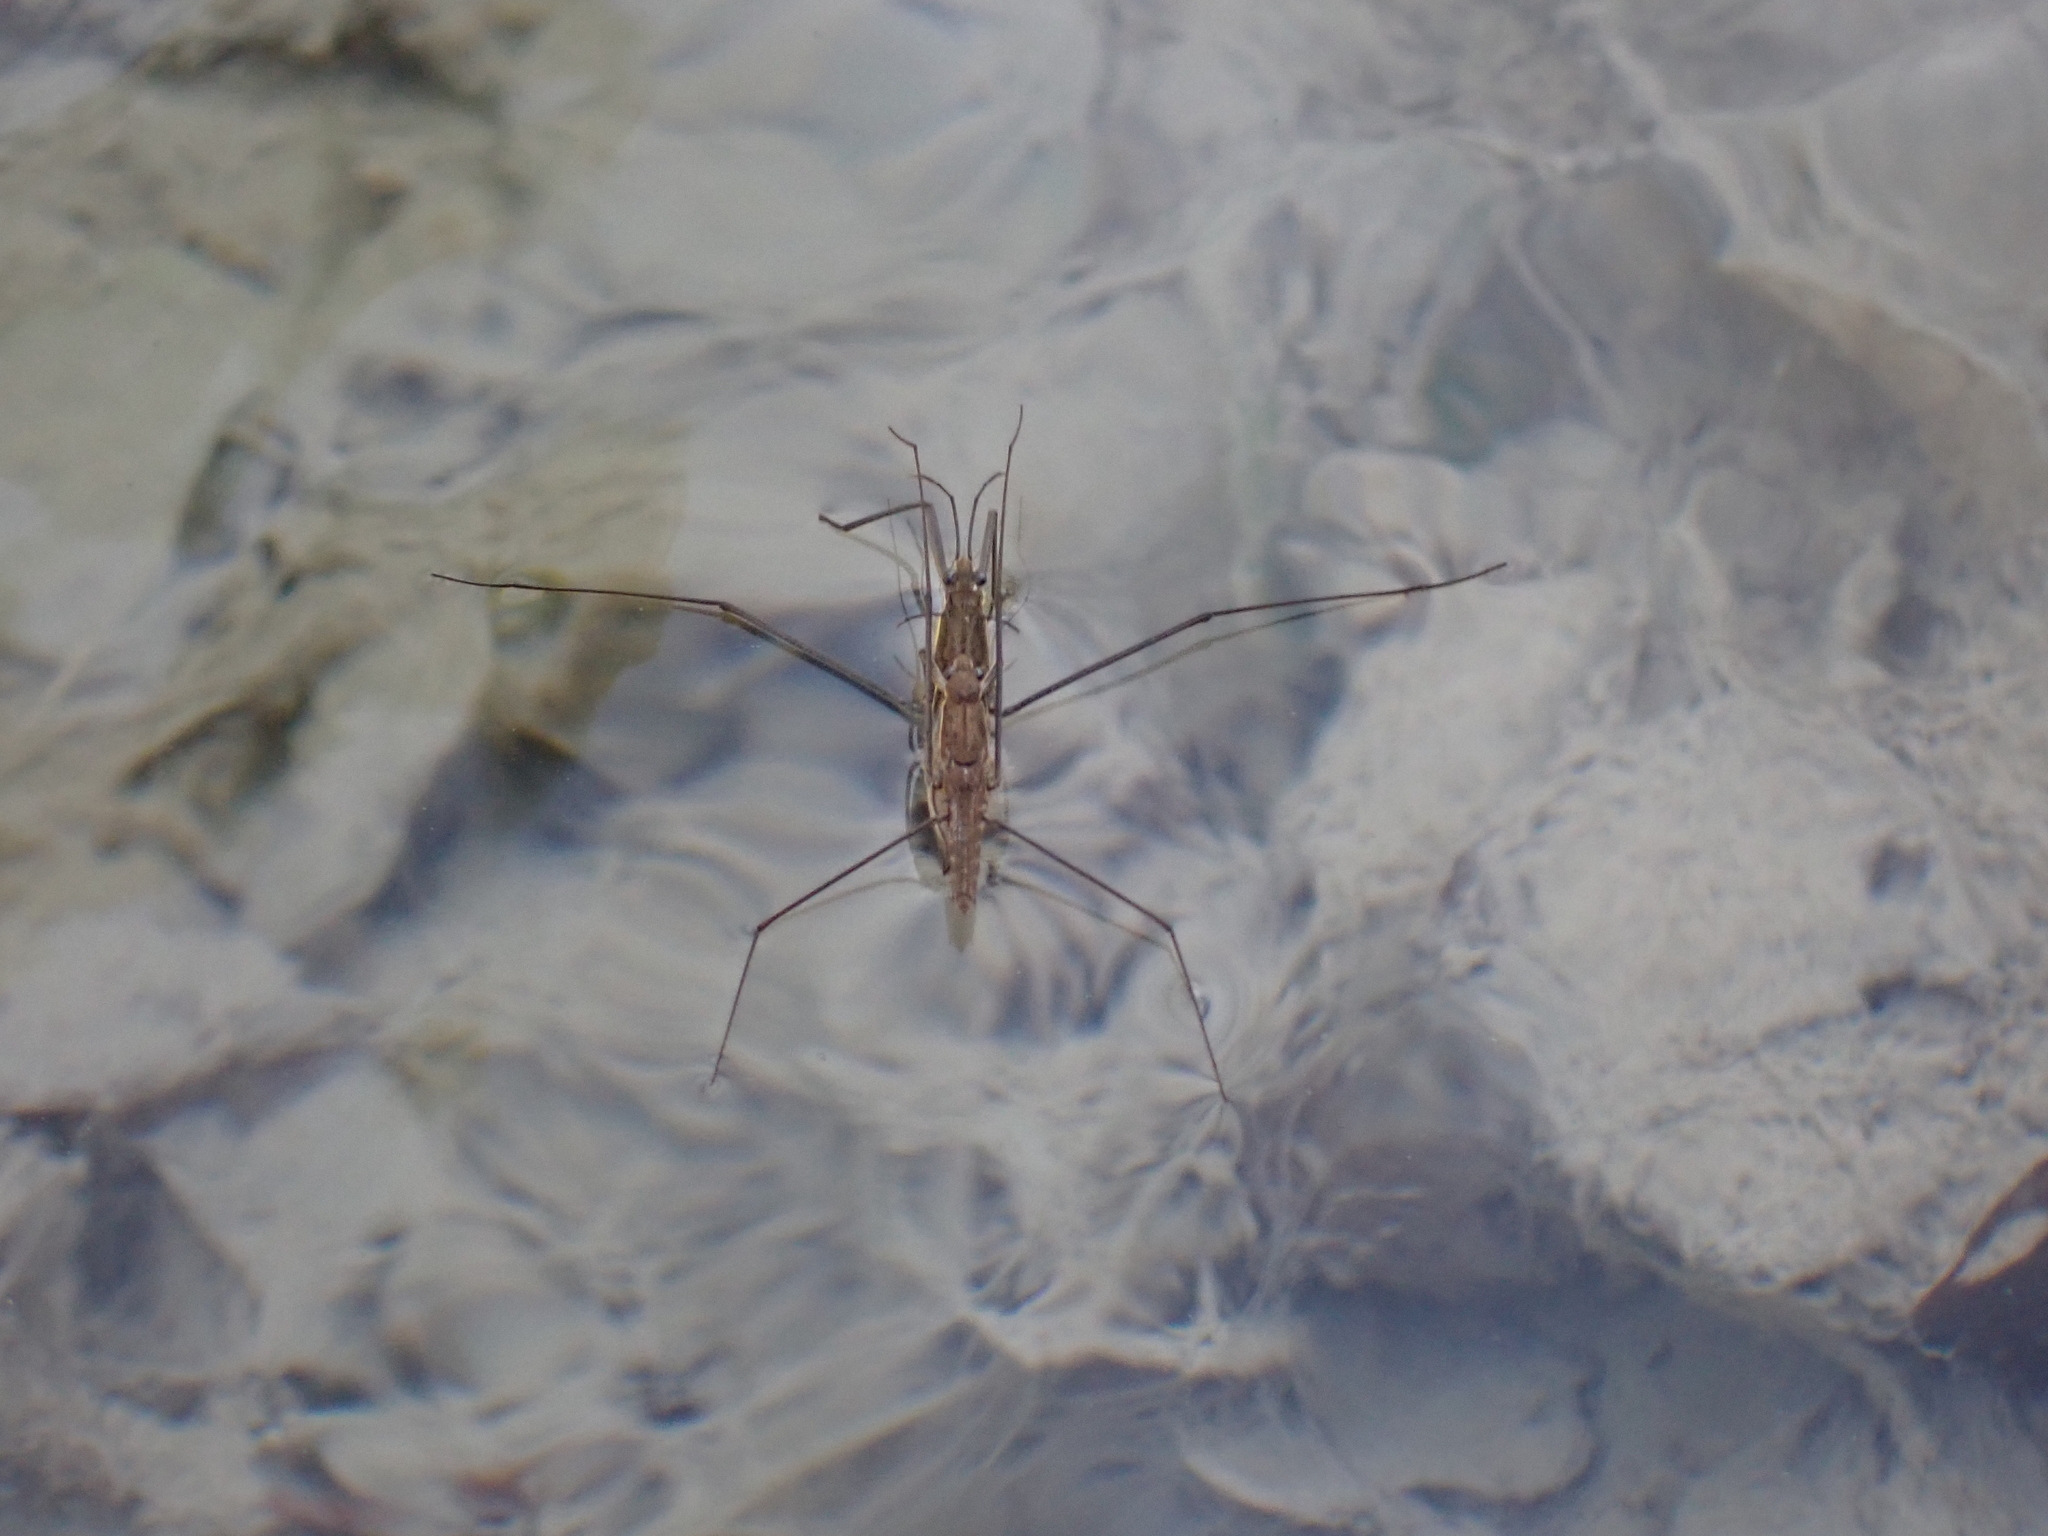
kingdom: Animalia
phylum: Arthropoda
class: Insecta
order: Hemiptera
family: Gerridae
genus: Aquarius
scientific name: Aquarius najas
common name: River skater
